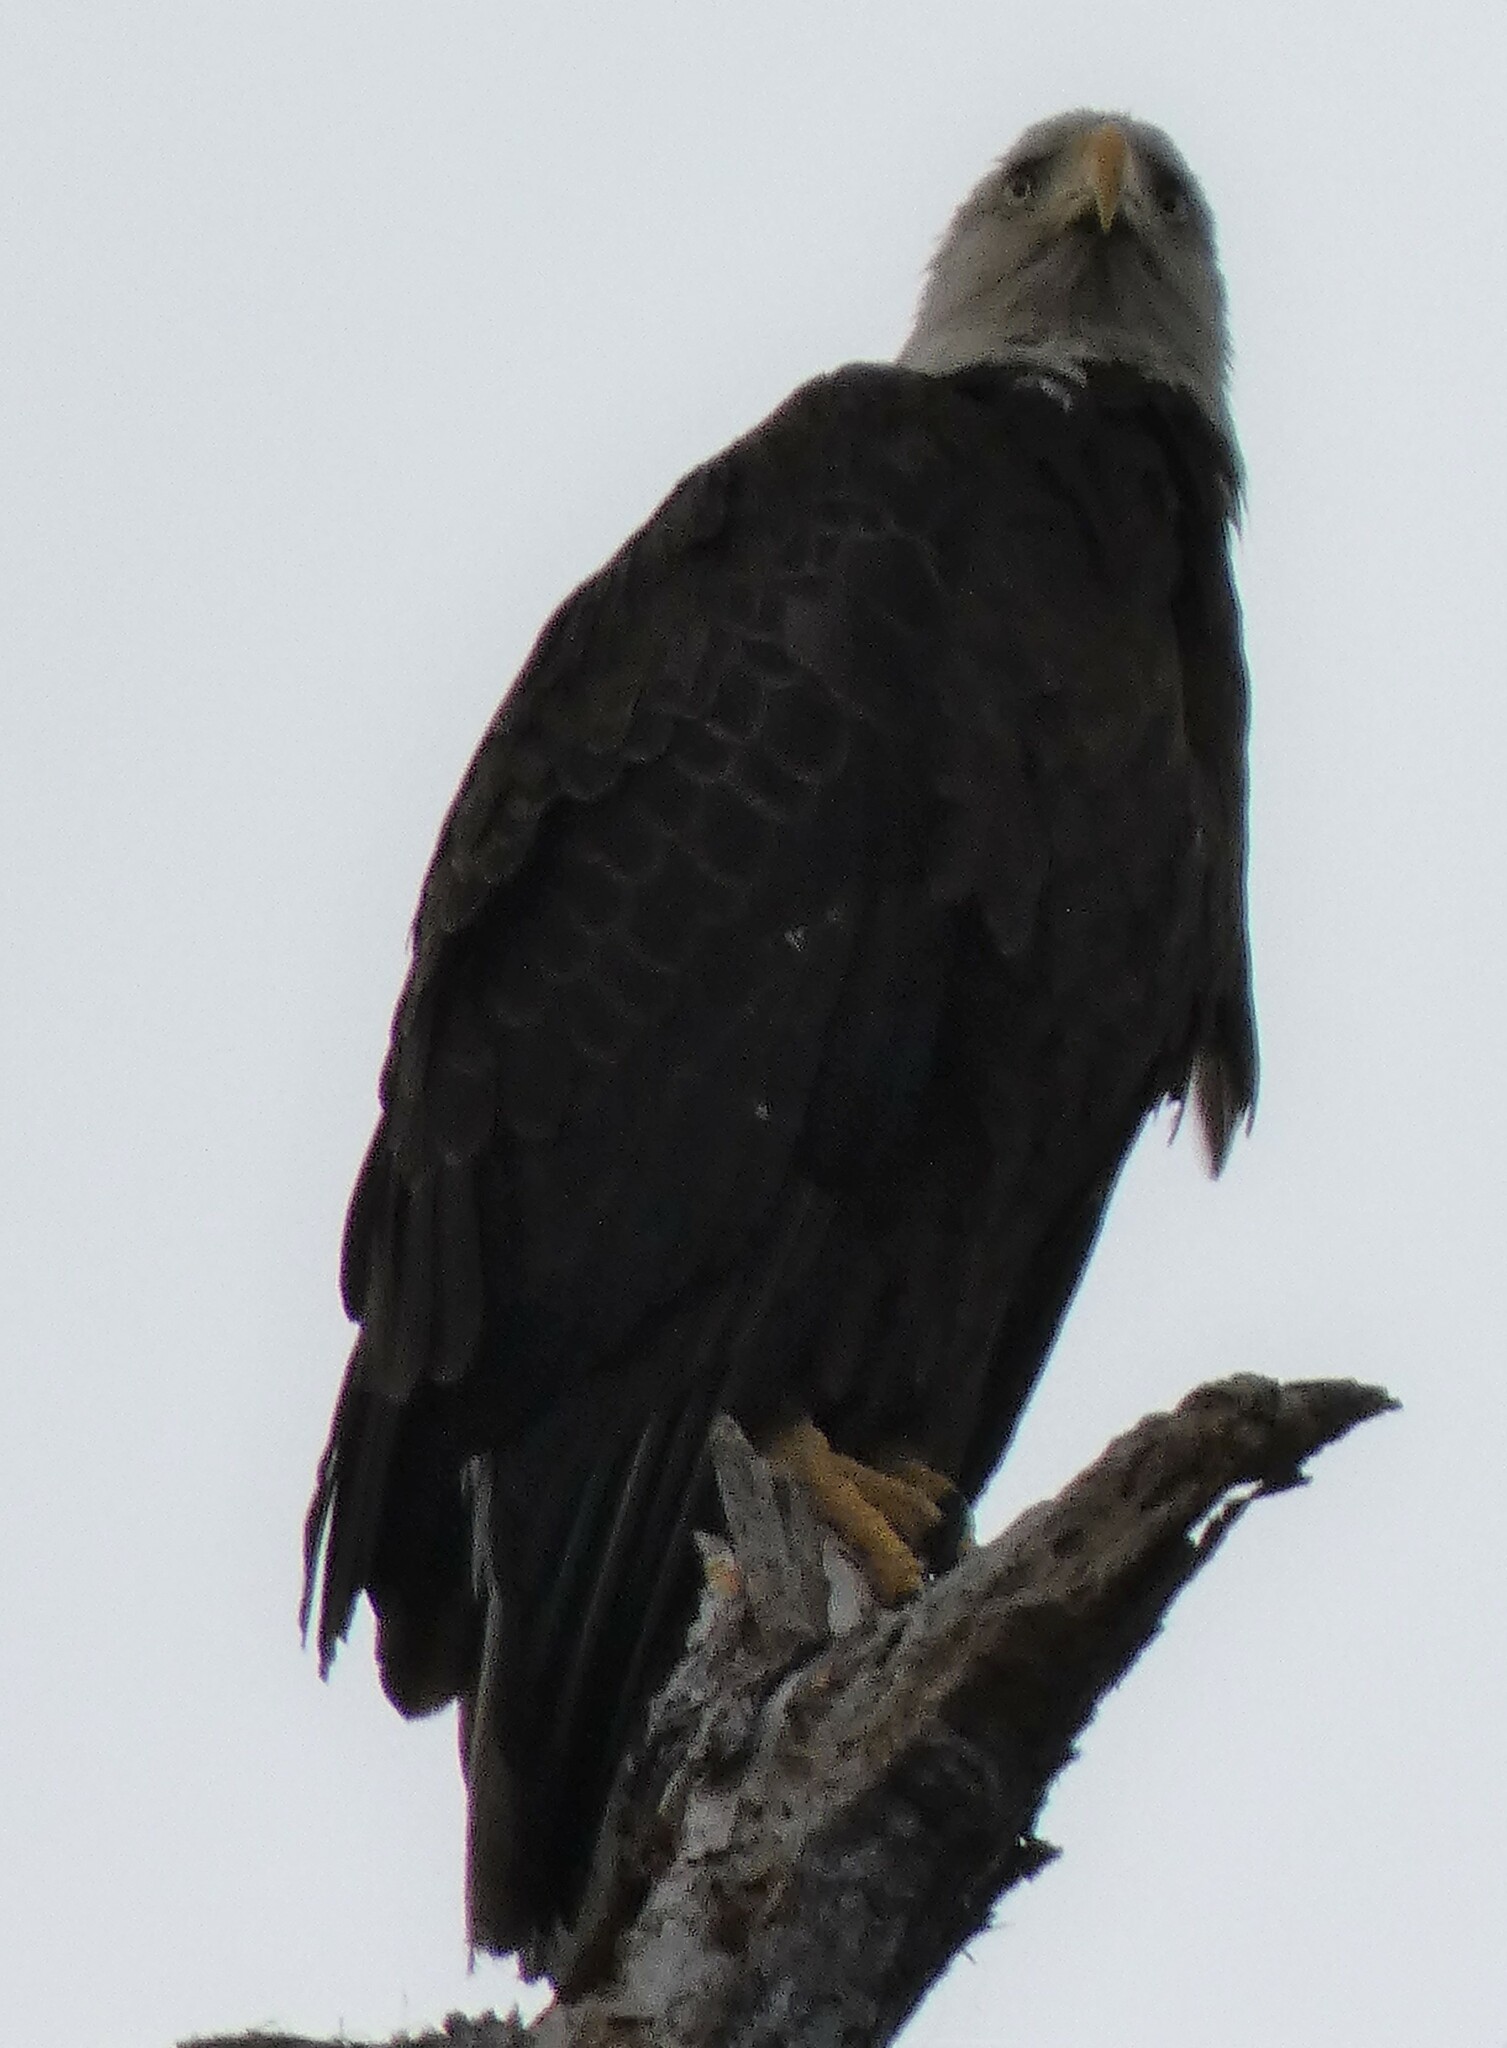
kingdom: Animalia
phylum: Chordata
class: Aves
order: Accipitriformes
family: Accipitridae
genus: Haliaeetus
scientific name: Haliaeetus leucocephalus
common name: Bald eagle
